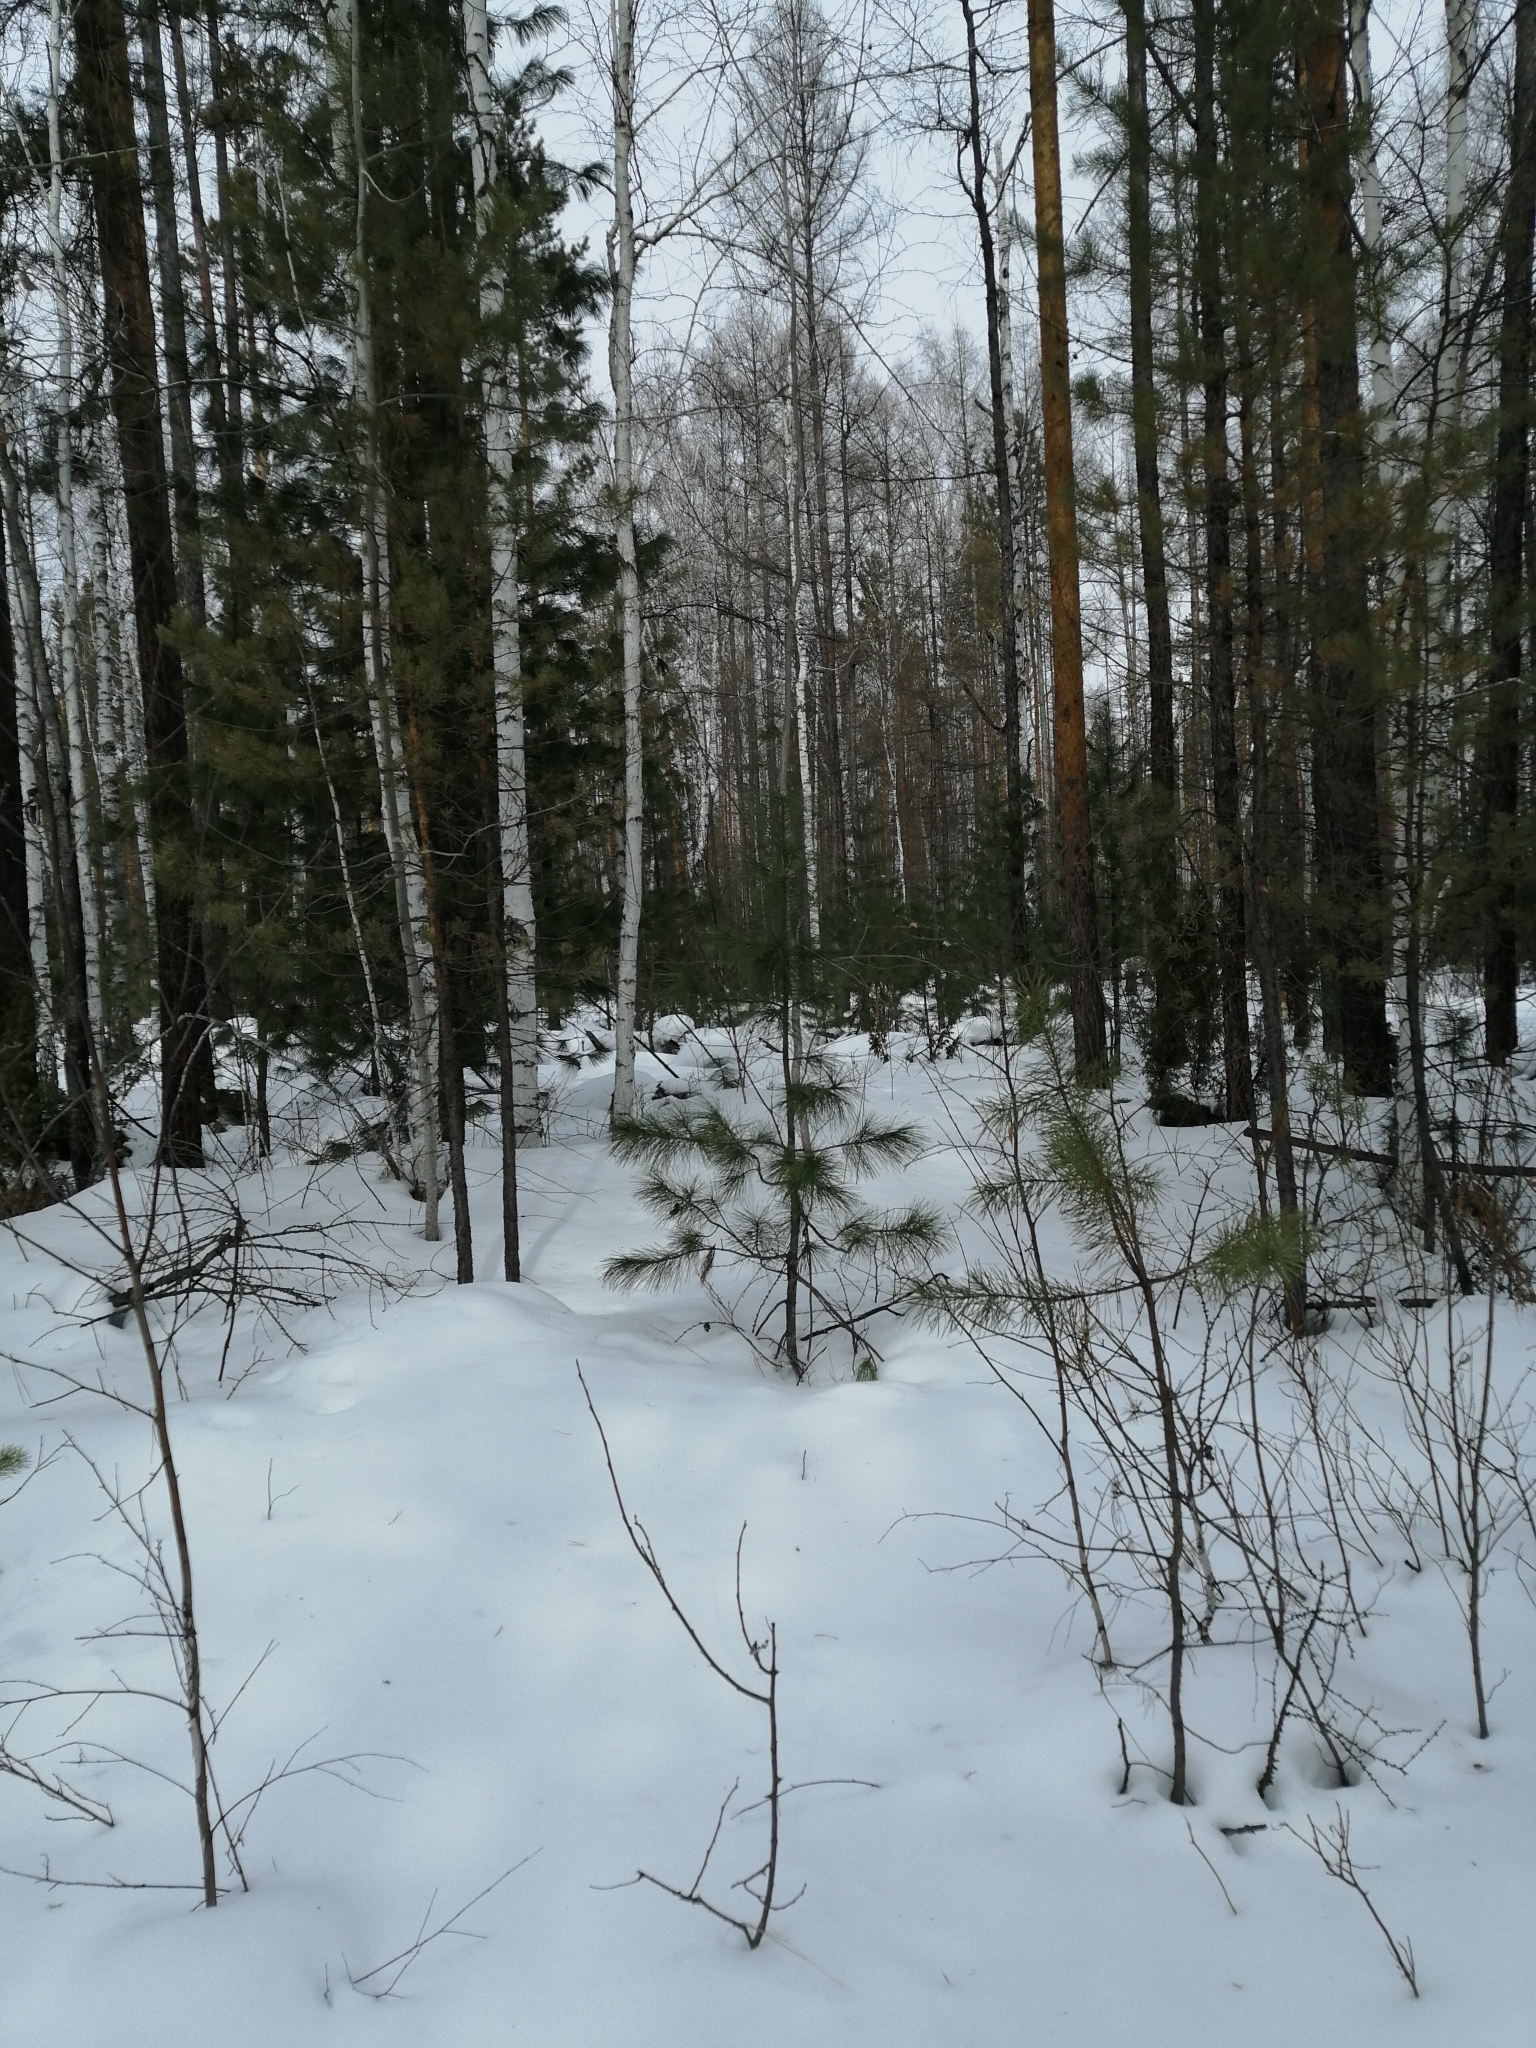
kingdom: Plantae
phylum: Tracheophyta
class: Pinopsida
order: Pinales
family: Pinaceae
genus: Pinus
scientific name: Pinus sibirica
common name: Siberian pine
